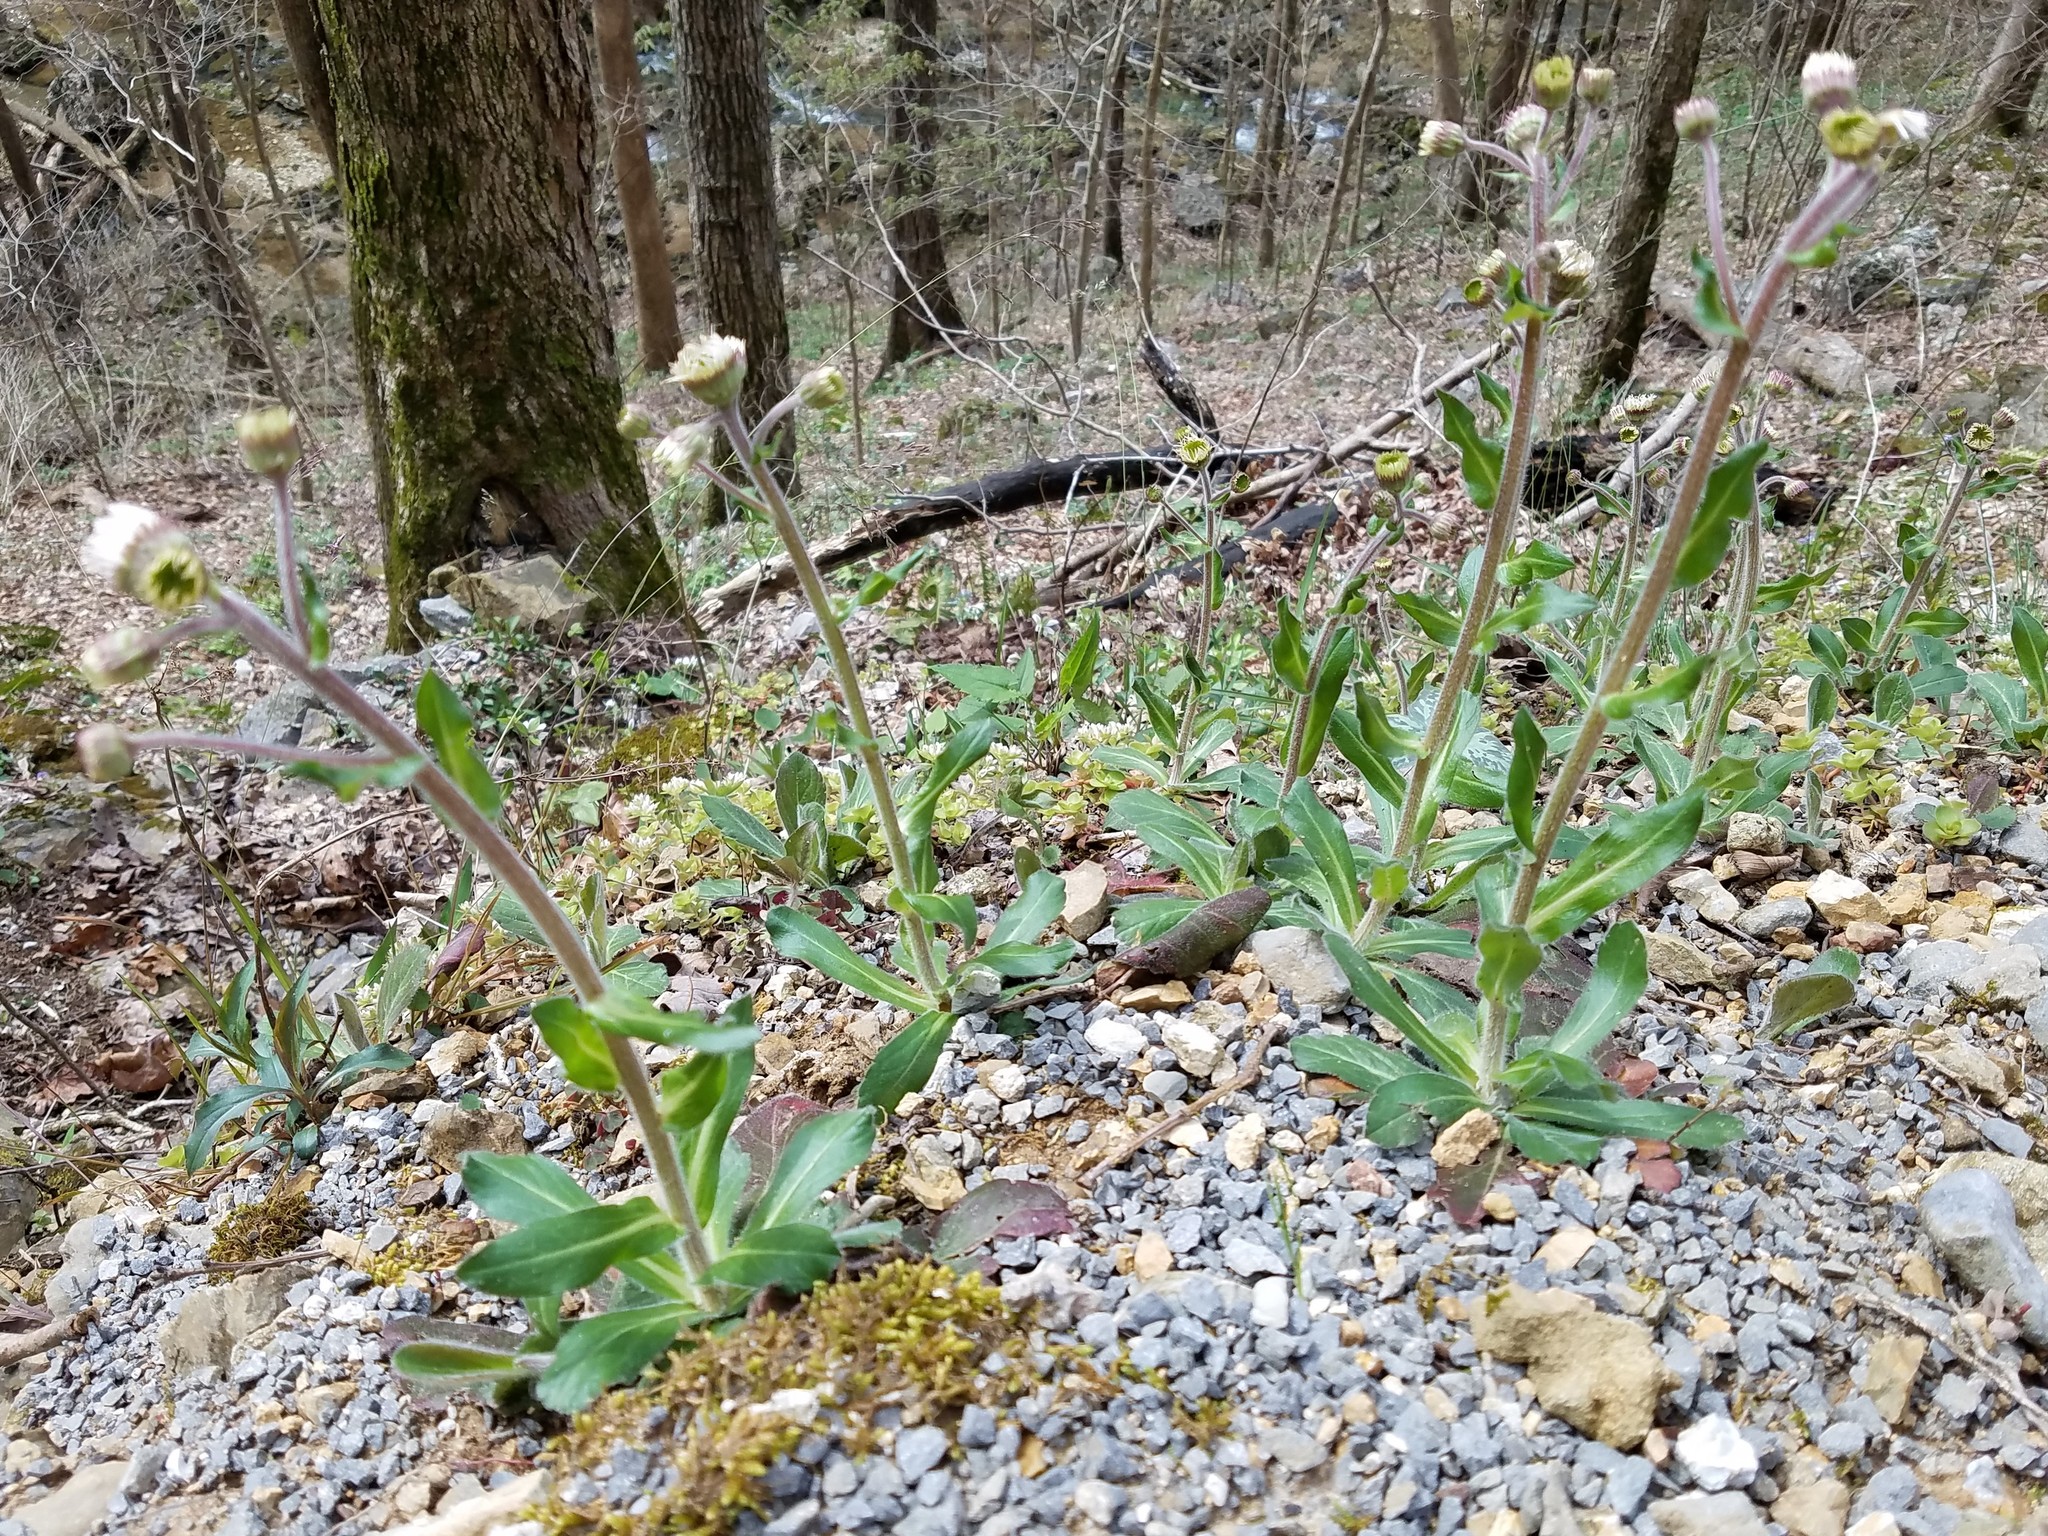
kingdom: Plantae
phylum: Tracheophyta
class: Magnoliopsida
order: Asterales
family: Asteraceae
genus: Erigeron
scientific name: Erigeron pulchellus
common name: Hairy fleabane
